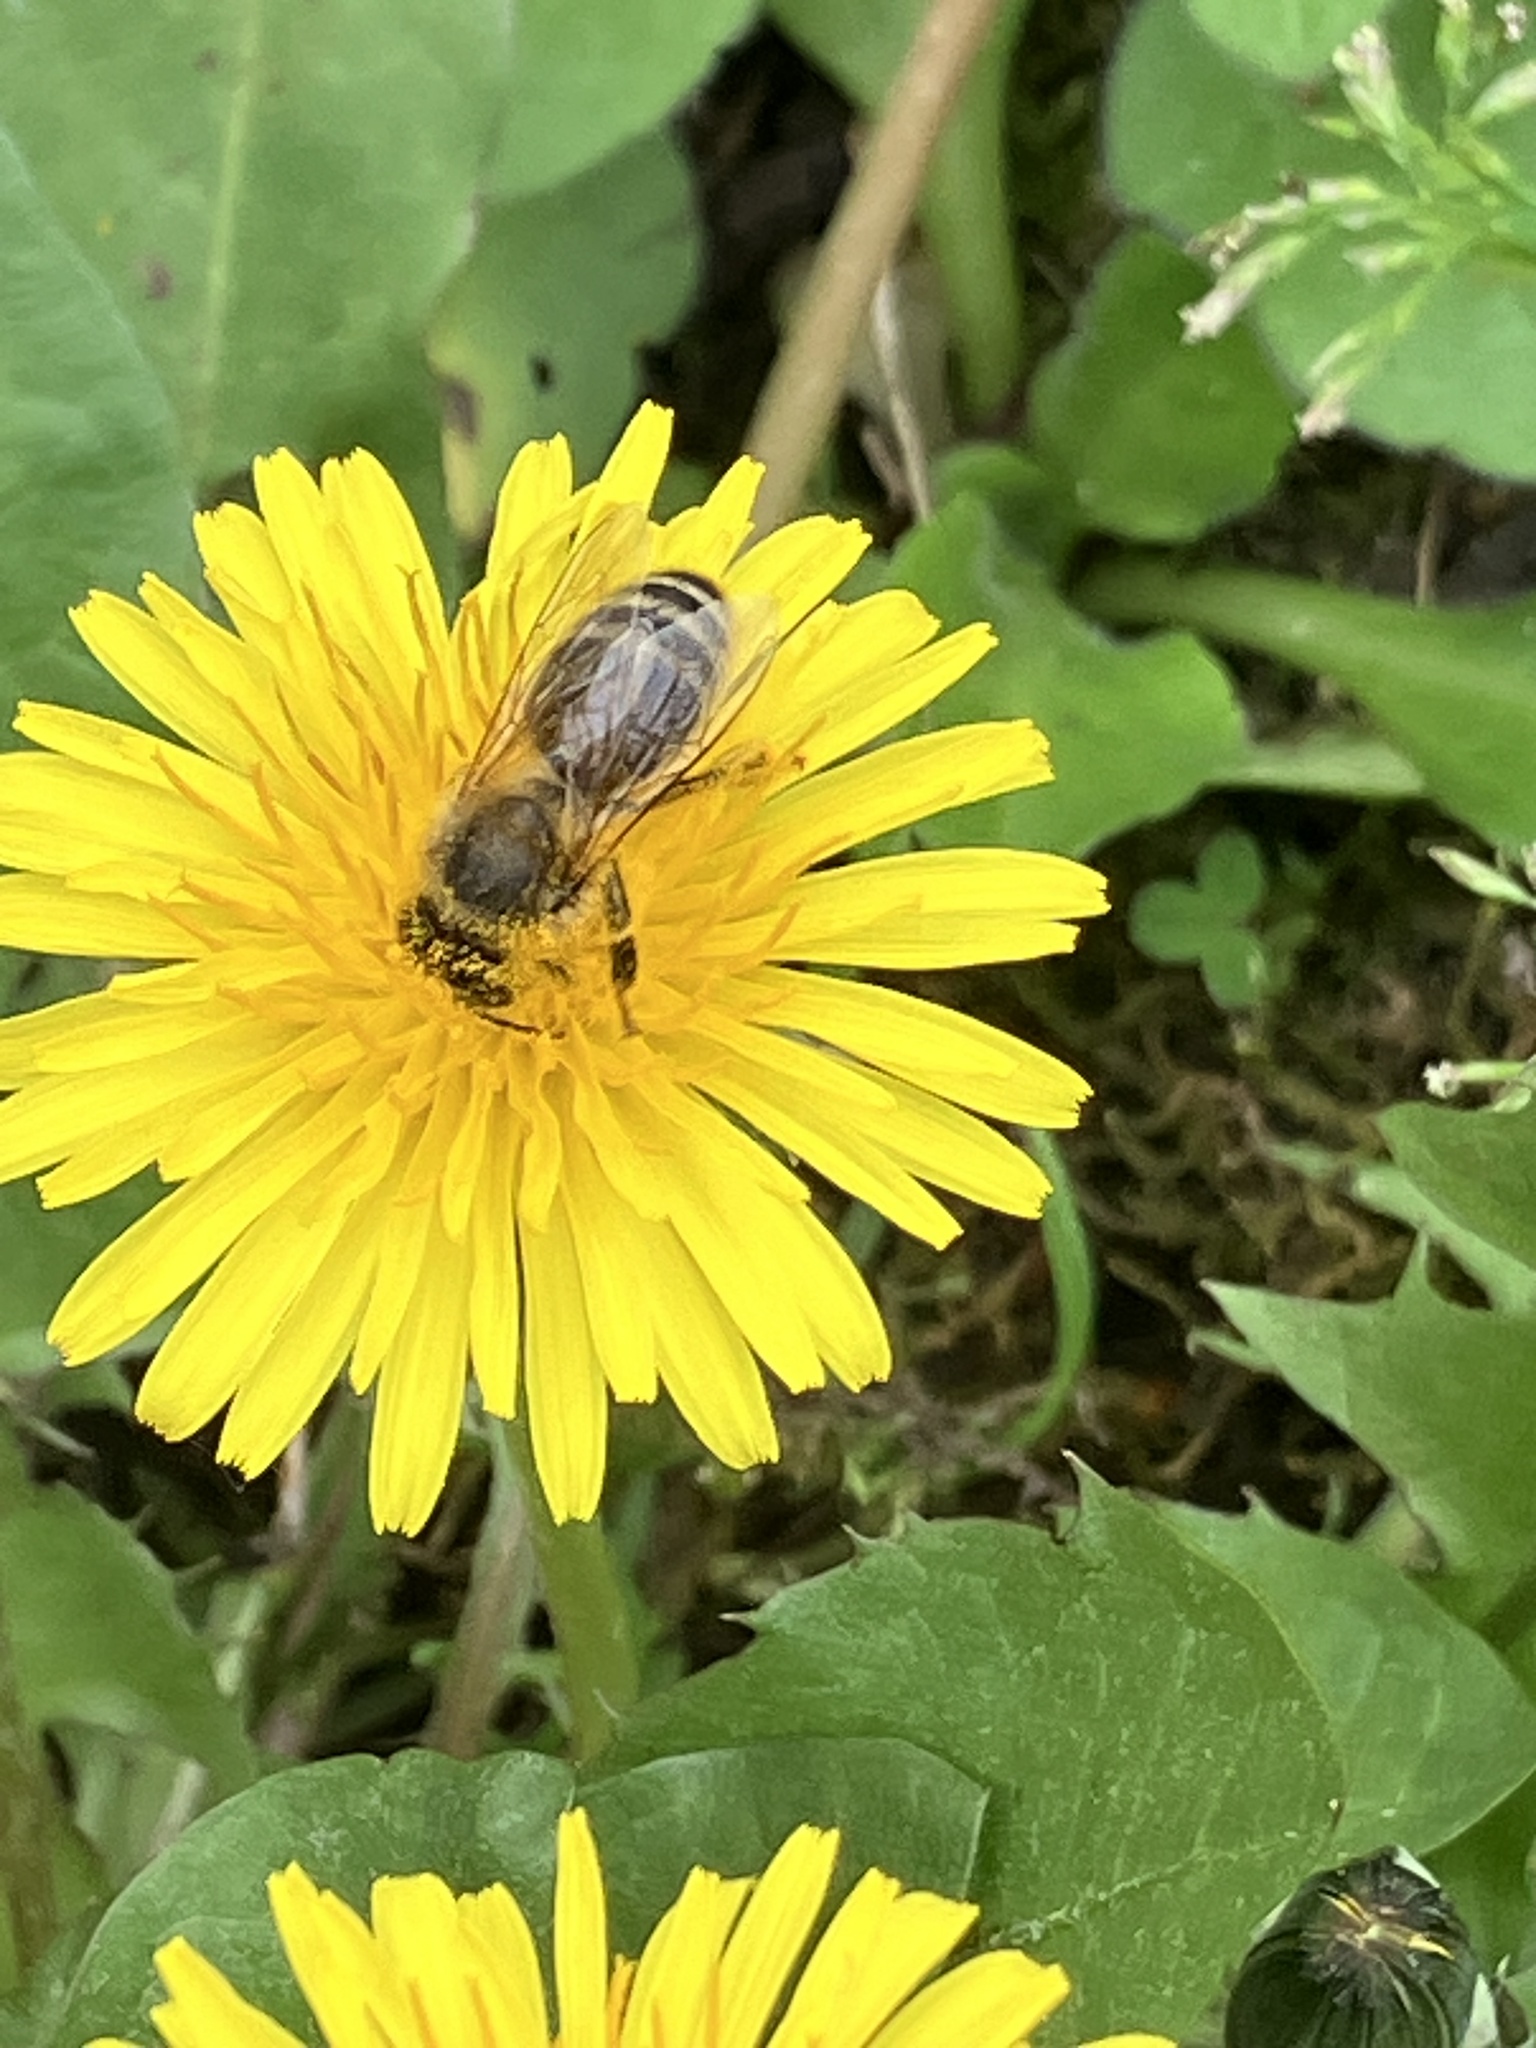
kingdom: Animalia
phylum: Arthropoda
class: Insecta
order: Hymenoptera
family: Apidae
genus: Apis
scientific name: Apis mellifera
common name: Honey bee
